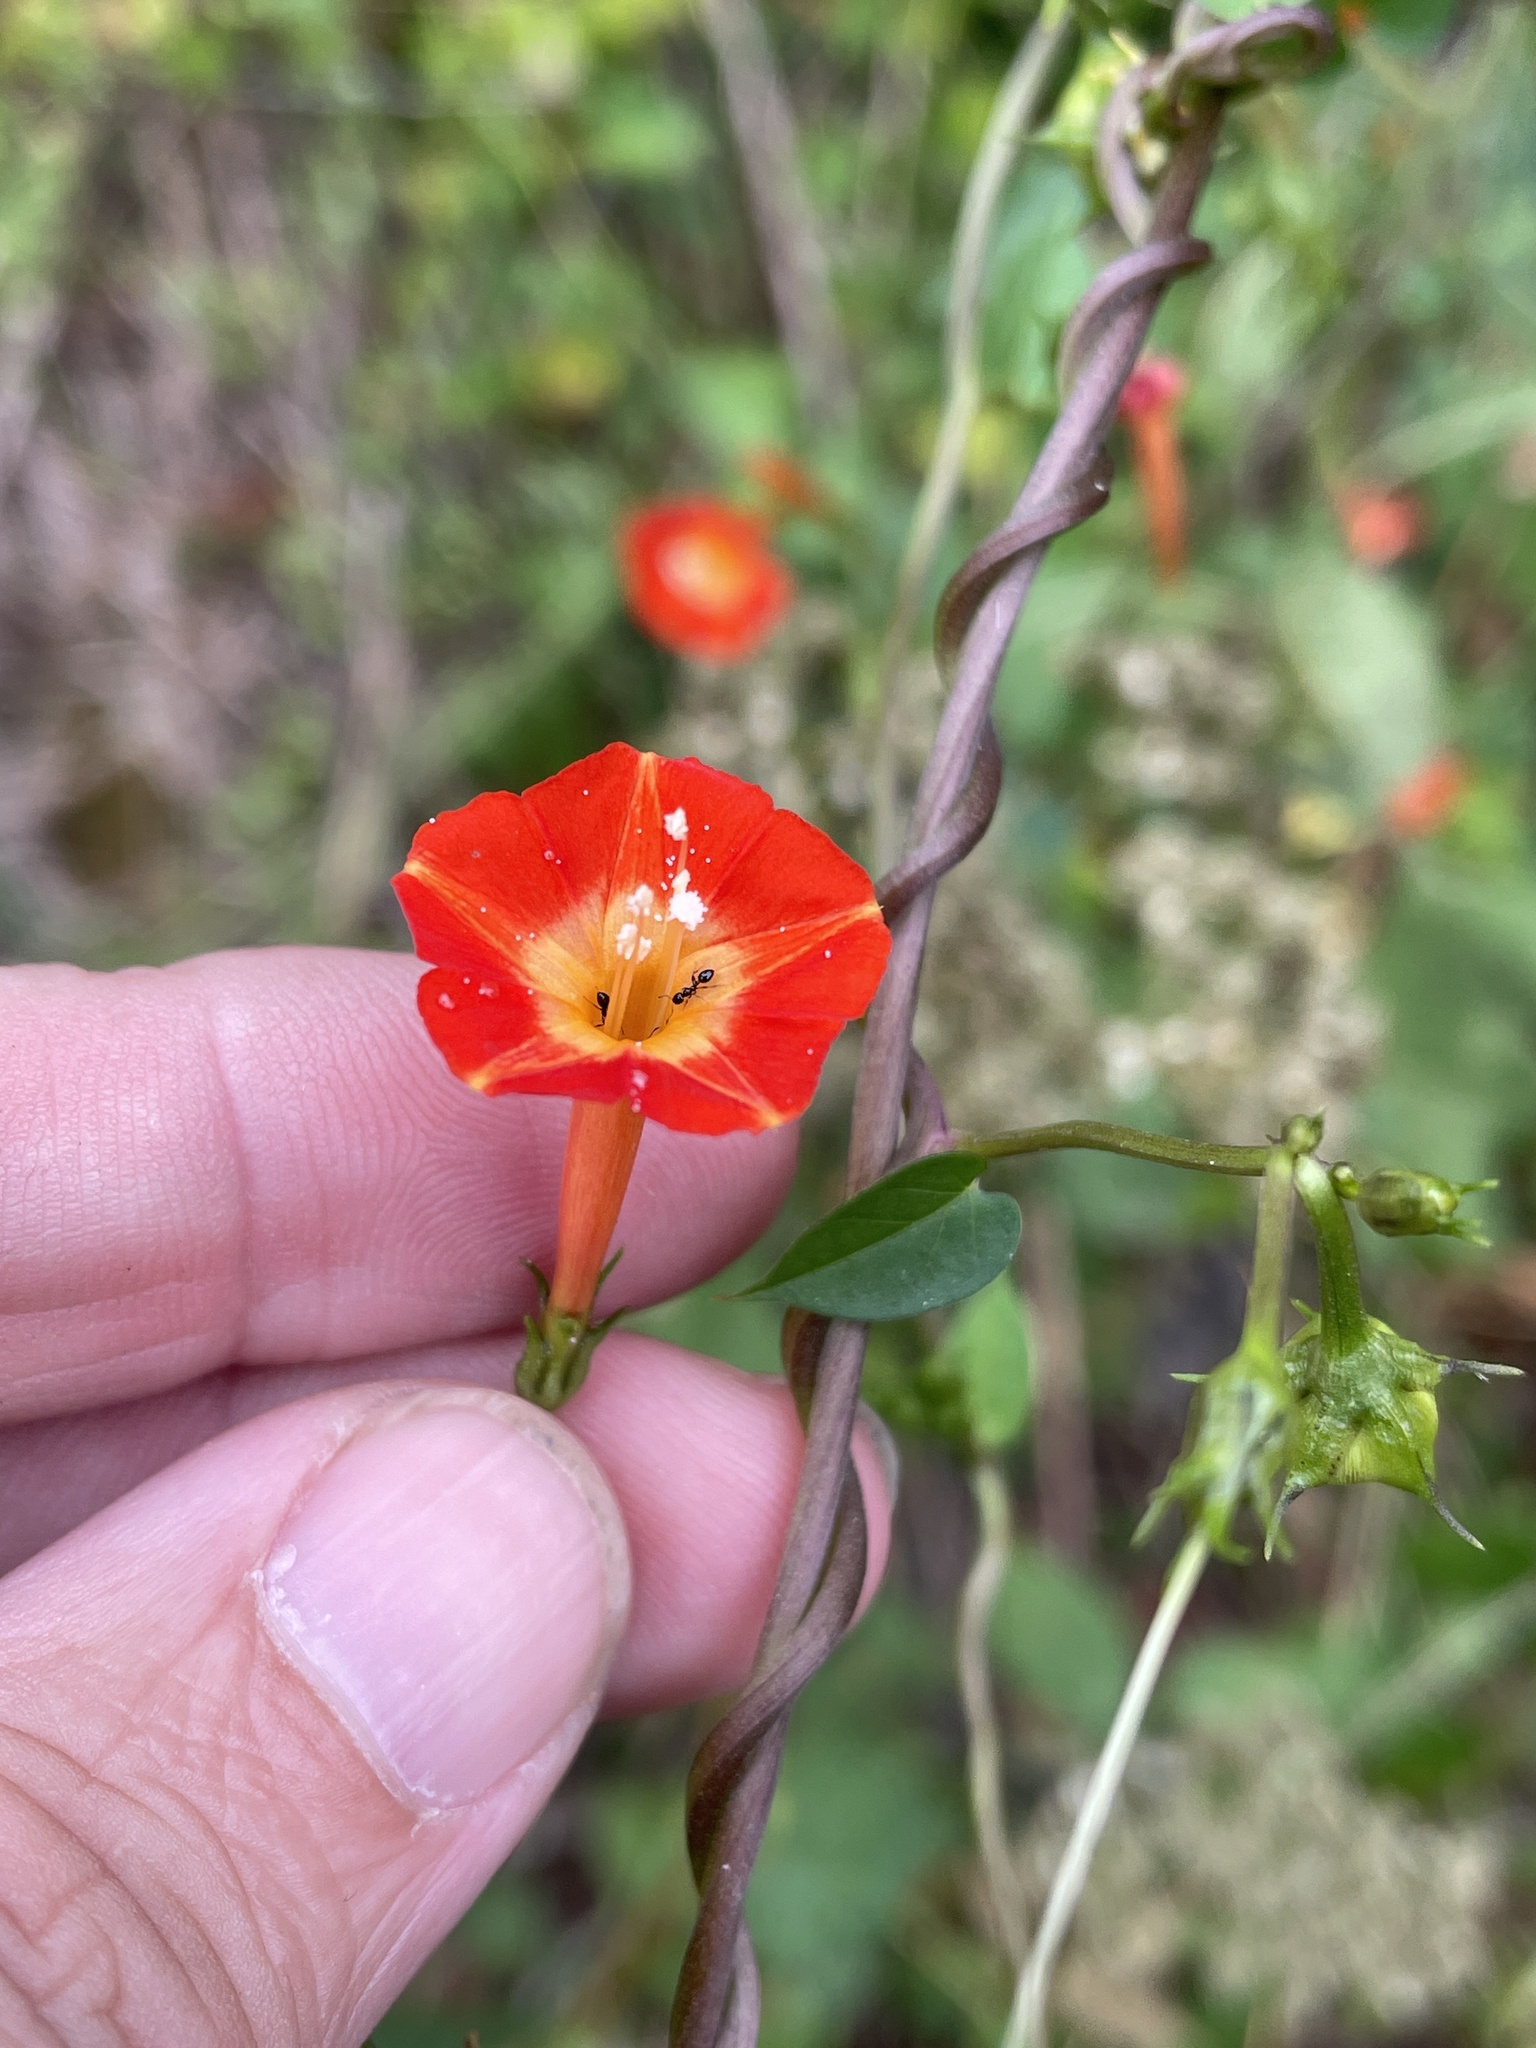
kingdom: Plantae
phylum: Tracheophyta
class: Magnoliopsida
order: Solanales
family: Convolvulaceae
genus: Ipomoea
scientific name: Ipomoea coccinea
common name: Red morning-glory
